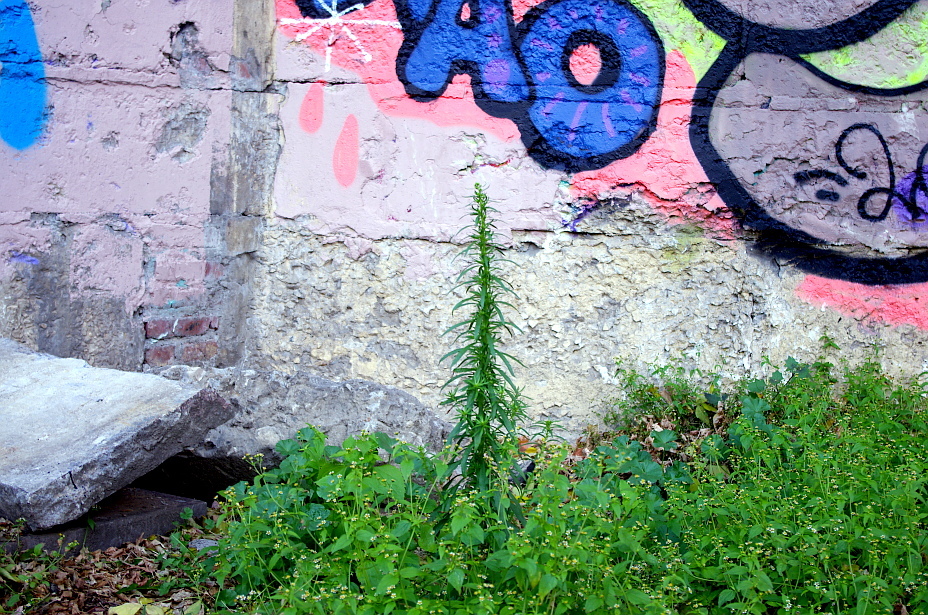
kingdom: Plantae
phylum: Tracheophyta
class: Magnoliopsida
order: Asterales
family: Asteraceae
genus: Erigeron
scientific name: Erigeron canadensis
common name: Canadian fleabane
